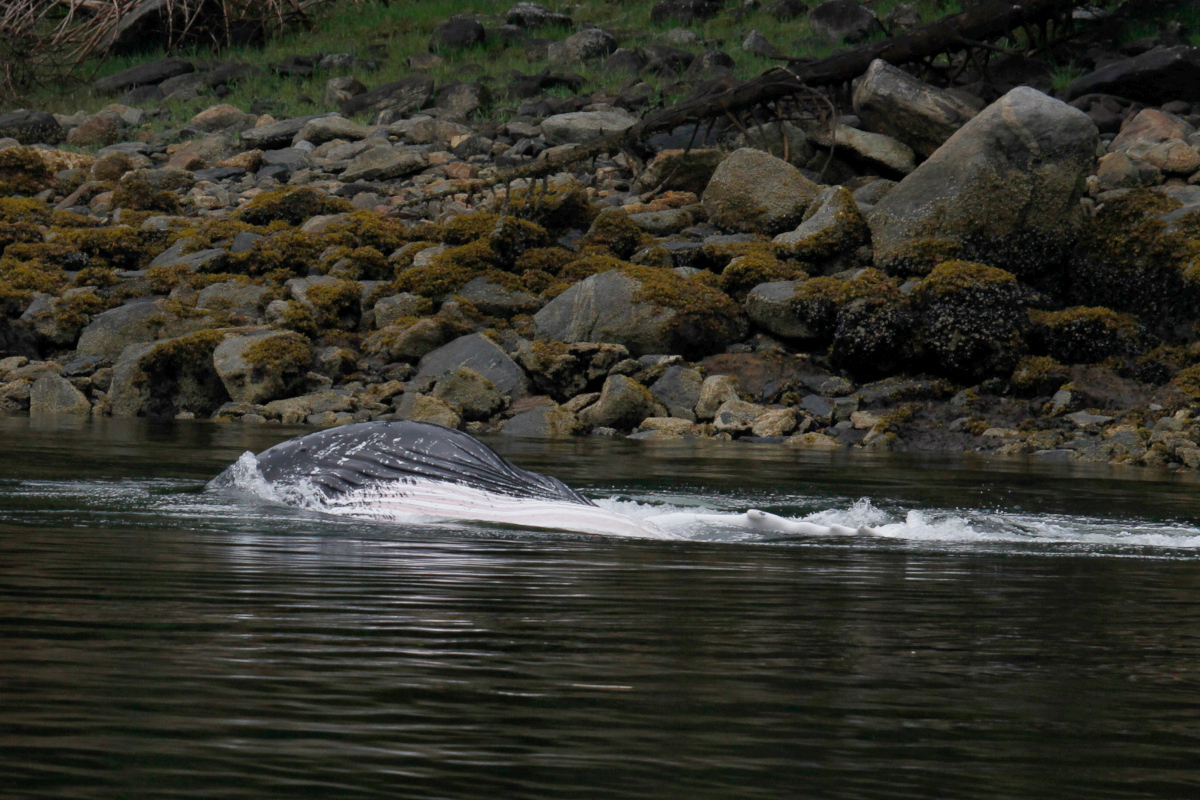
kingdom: Animalia
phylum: Chordata
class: Mammalia
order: Cetacea
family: Balaenopteridae
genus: Megaptera
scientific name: Megaptera novaeangliae
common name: Humpback whale
